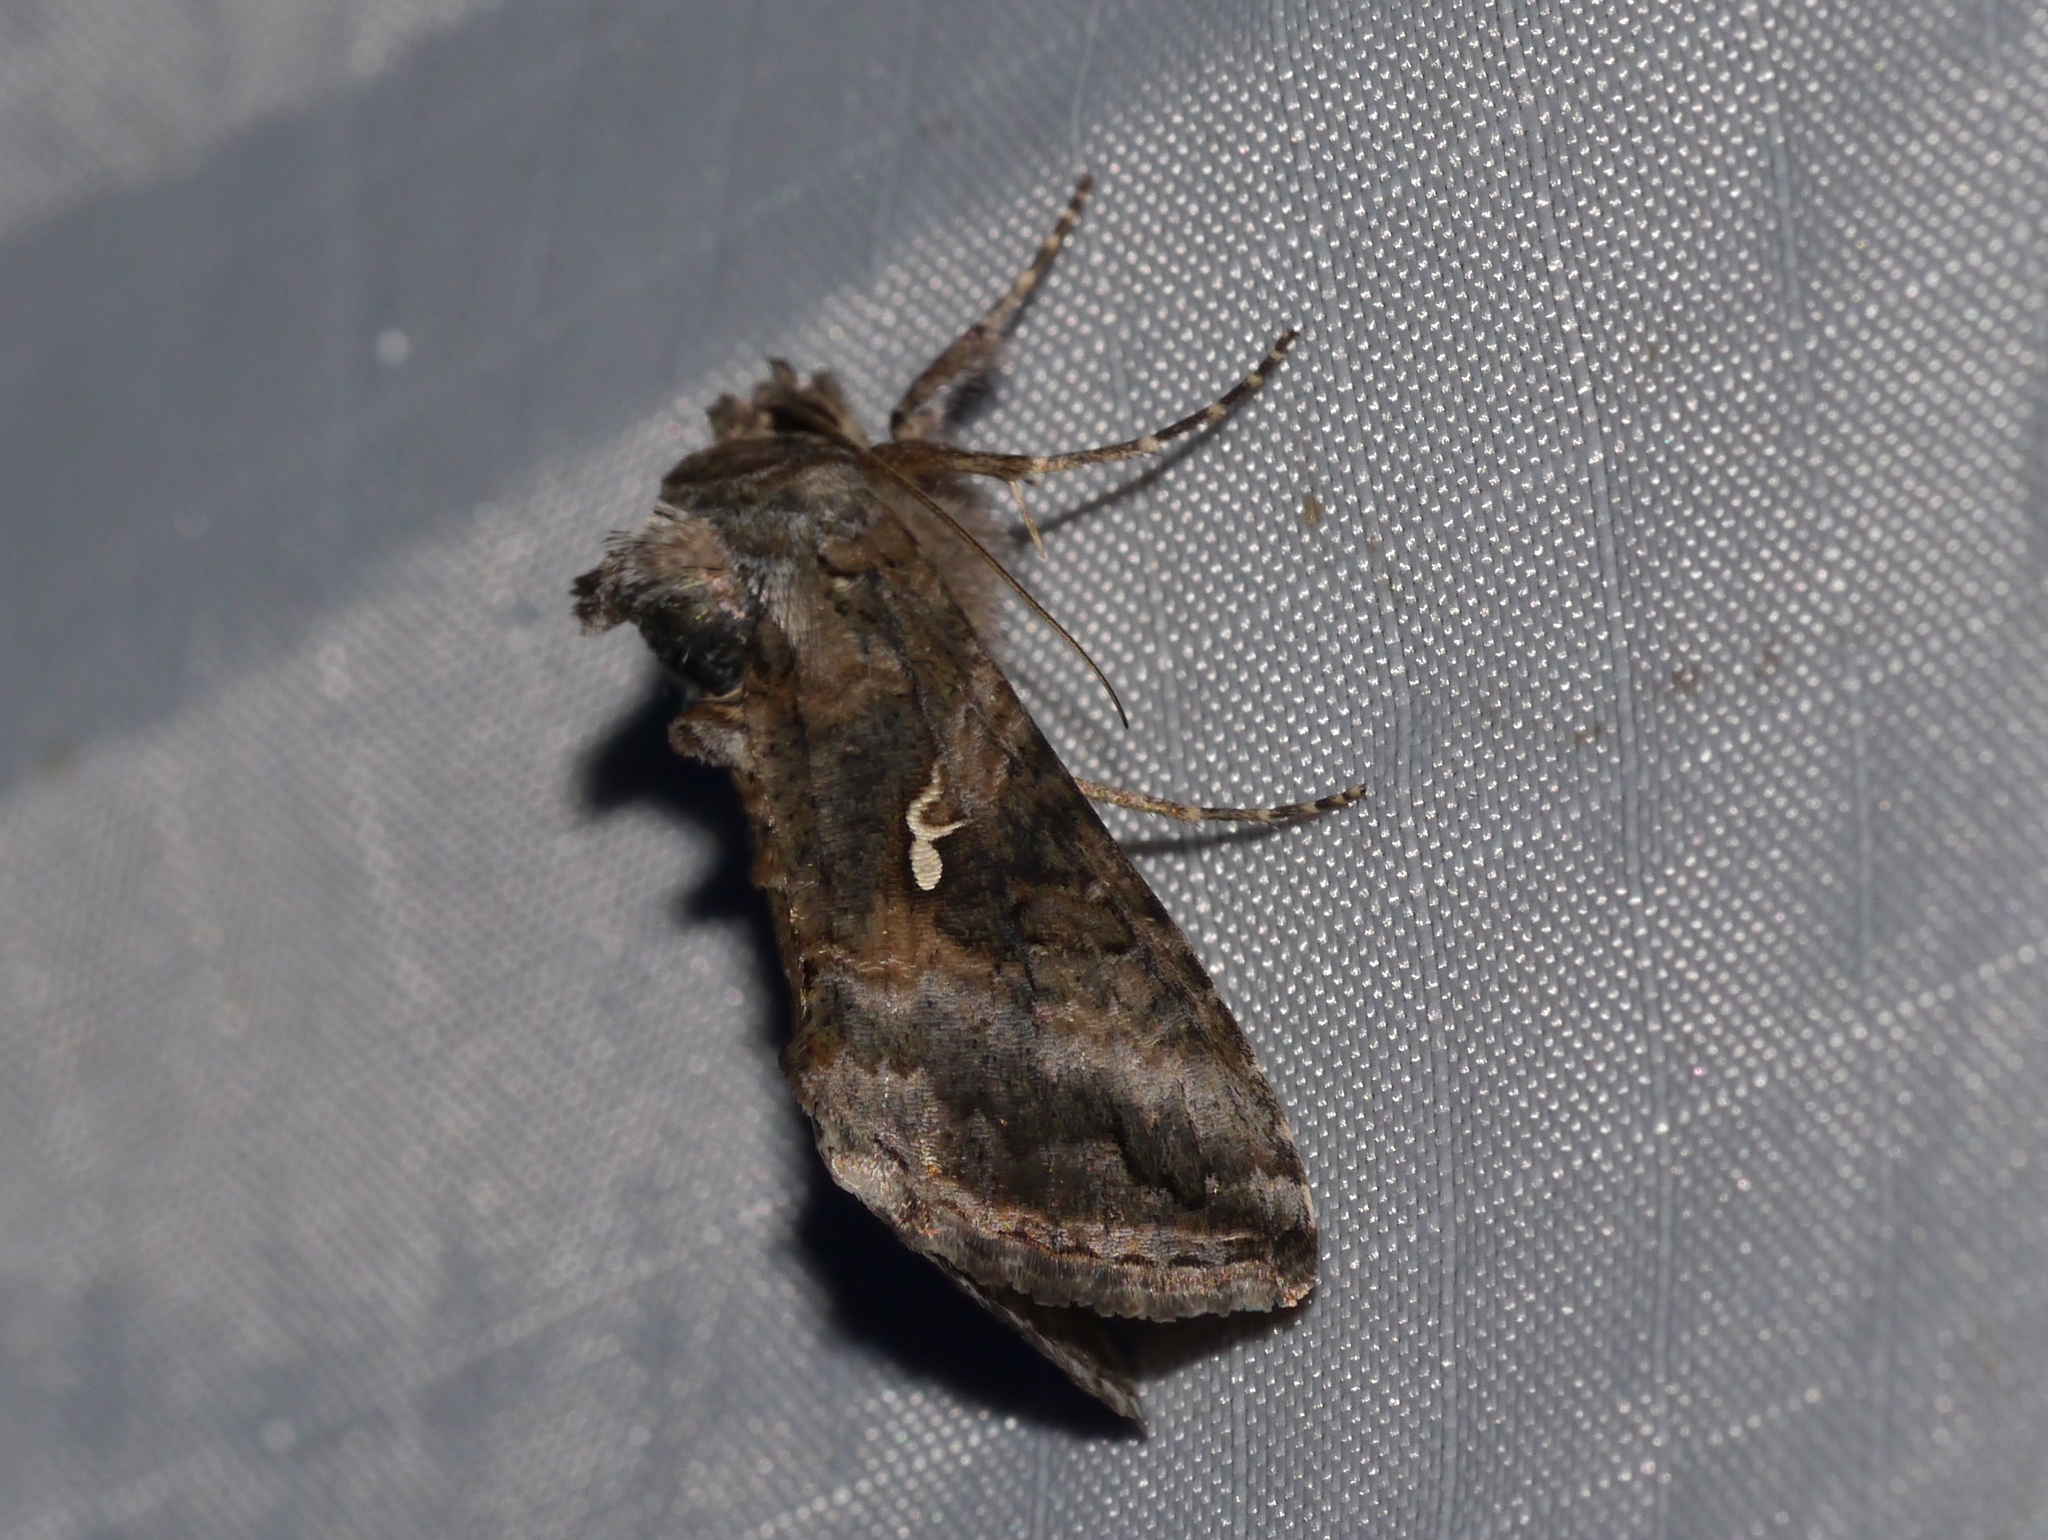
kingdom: Animalia
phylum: Arthropoda
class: Insecta
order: Lepidoptera
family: Noctuidae
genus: Rachiplusia
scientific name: Rachiplusia ou
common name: Gray looper moth
